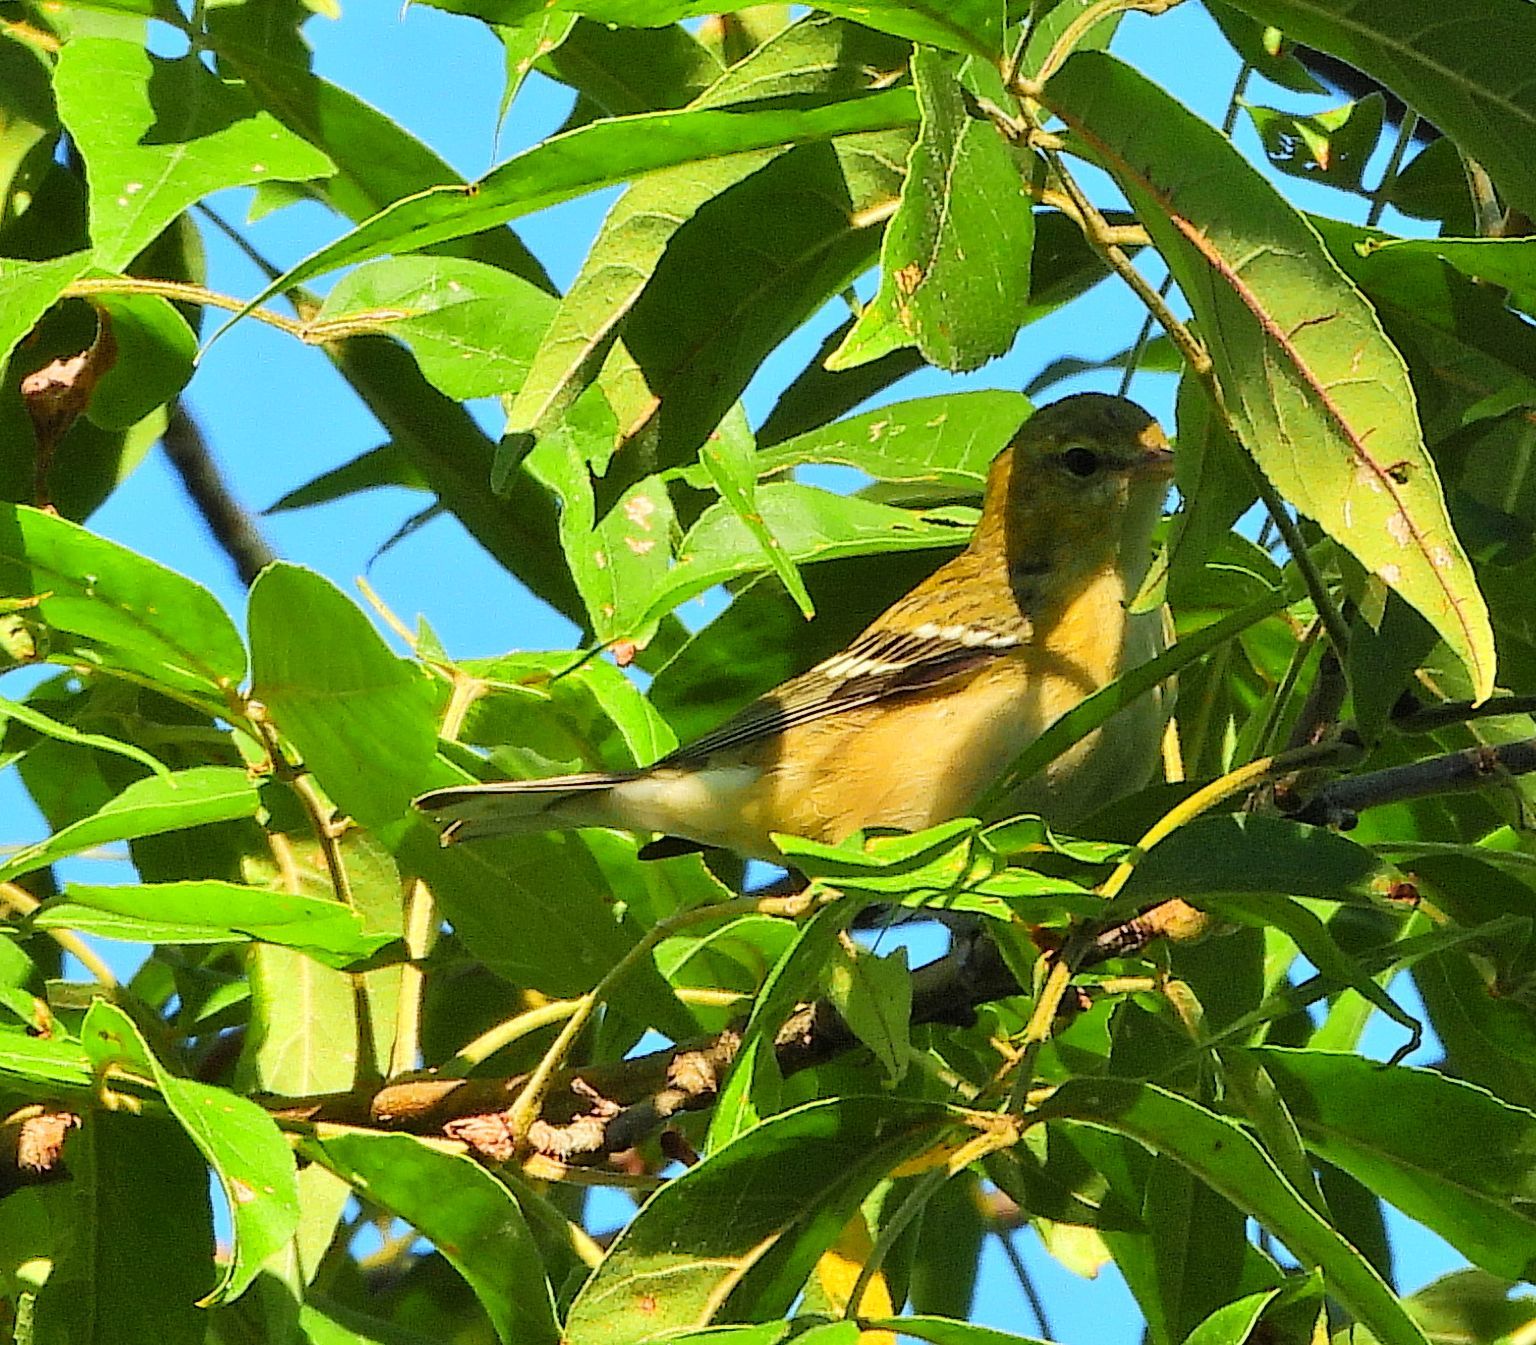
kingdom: Animalia
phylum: Chordata
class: Aves
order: Passeriformes
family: Parulidae
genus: Setophaga
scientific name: Setophaga castanea
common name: Bay-breasted warbler
